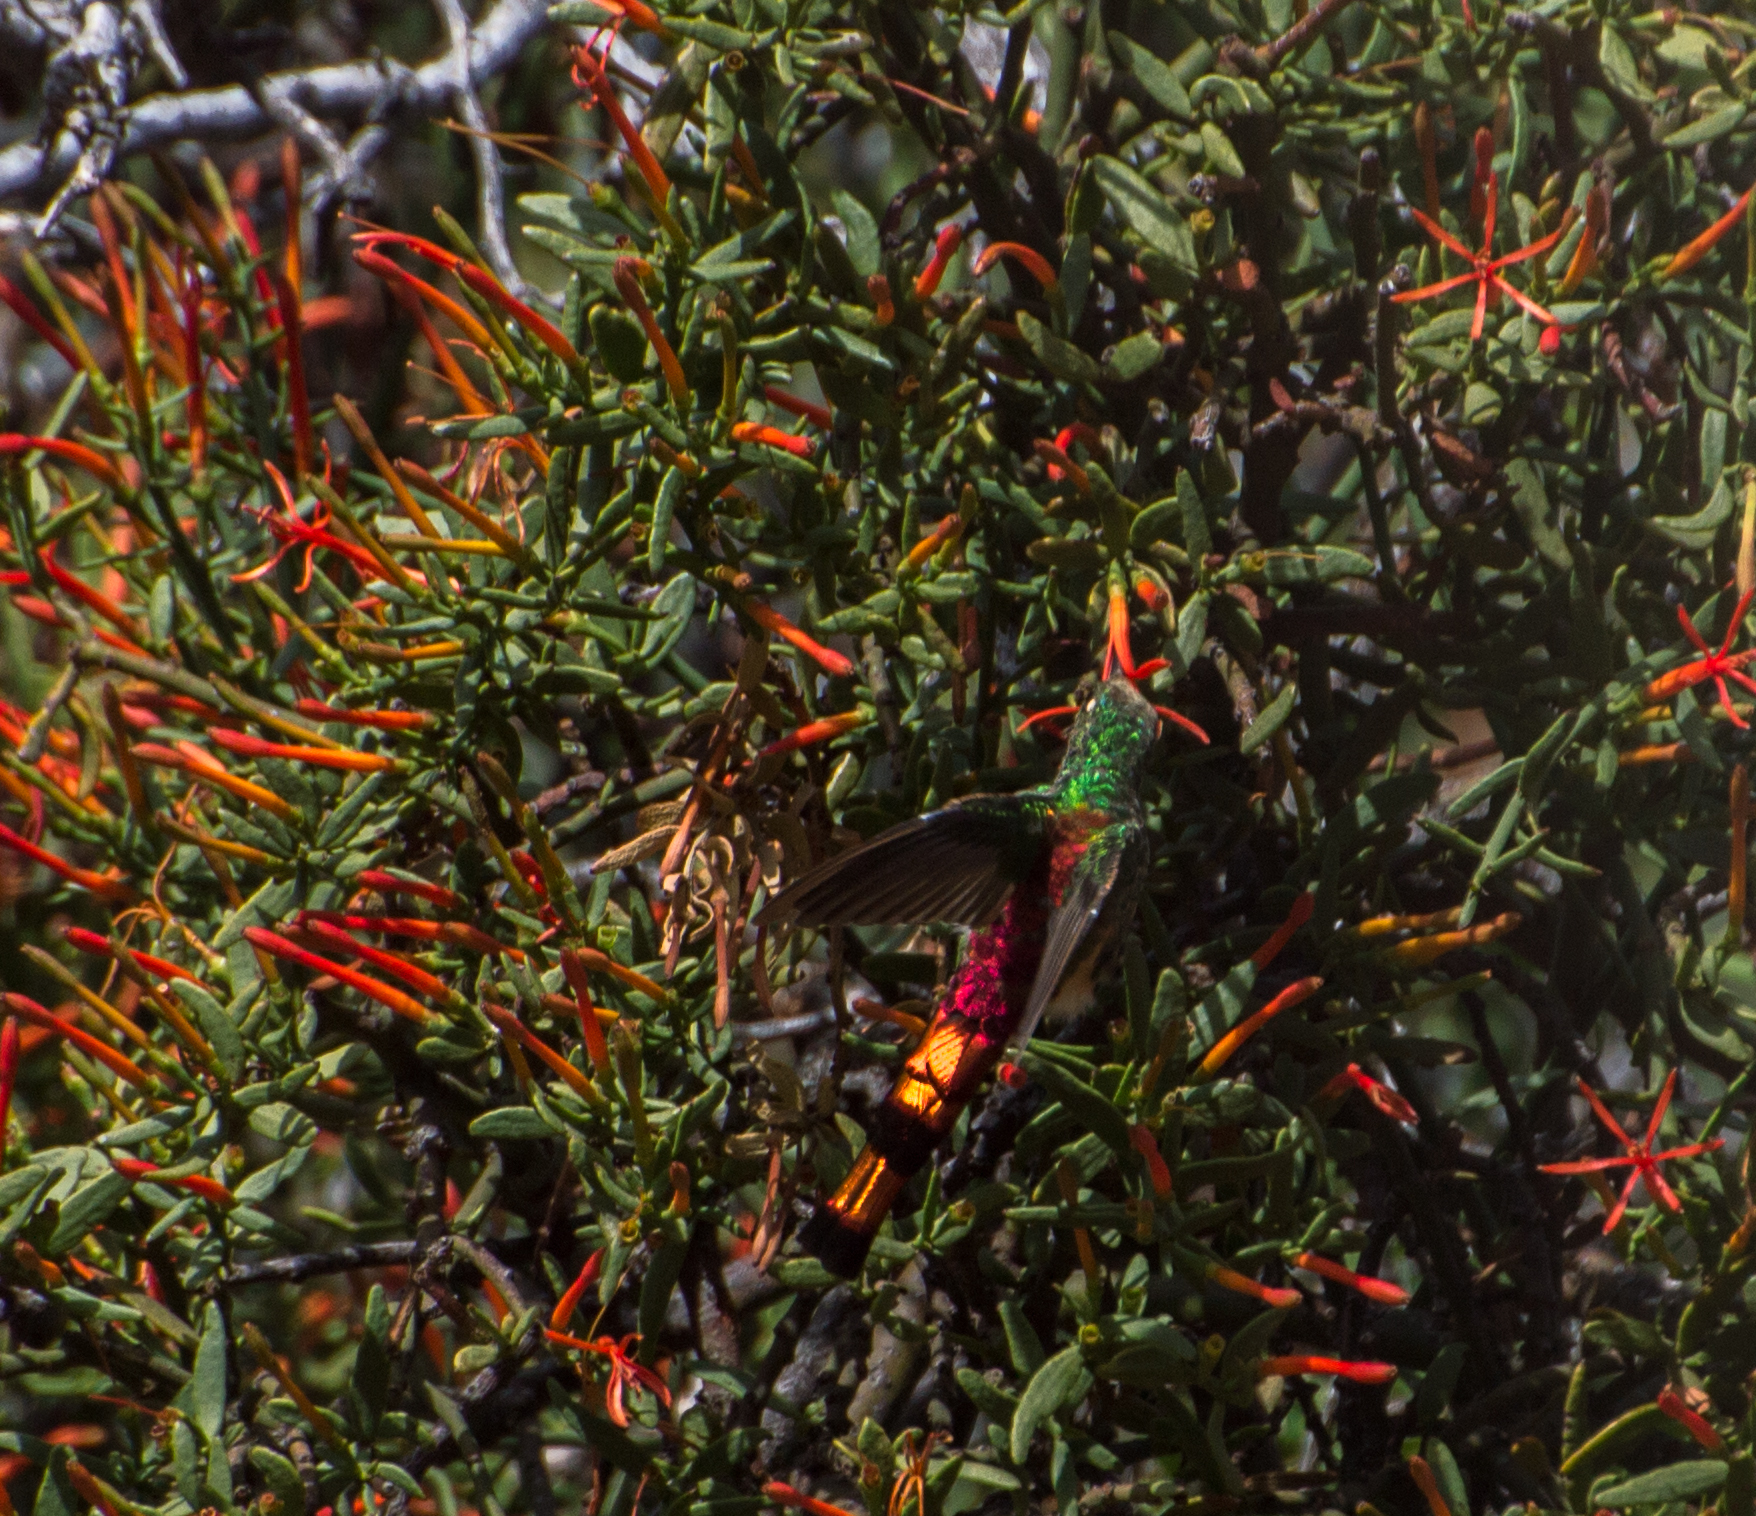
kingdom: Animalia
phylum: Chordata
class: Aves
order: Apodiformes
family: Trochilidae
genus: Sappho
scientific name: Sappho sparganurus
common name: Red-tailed comet
